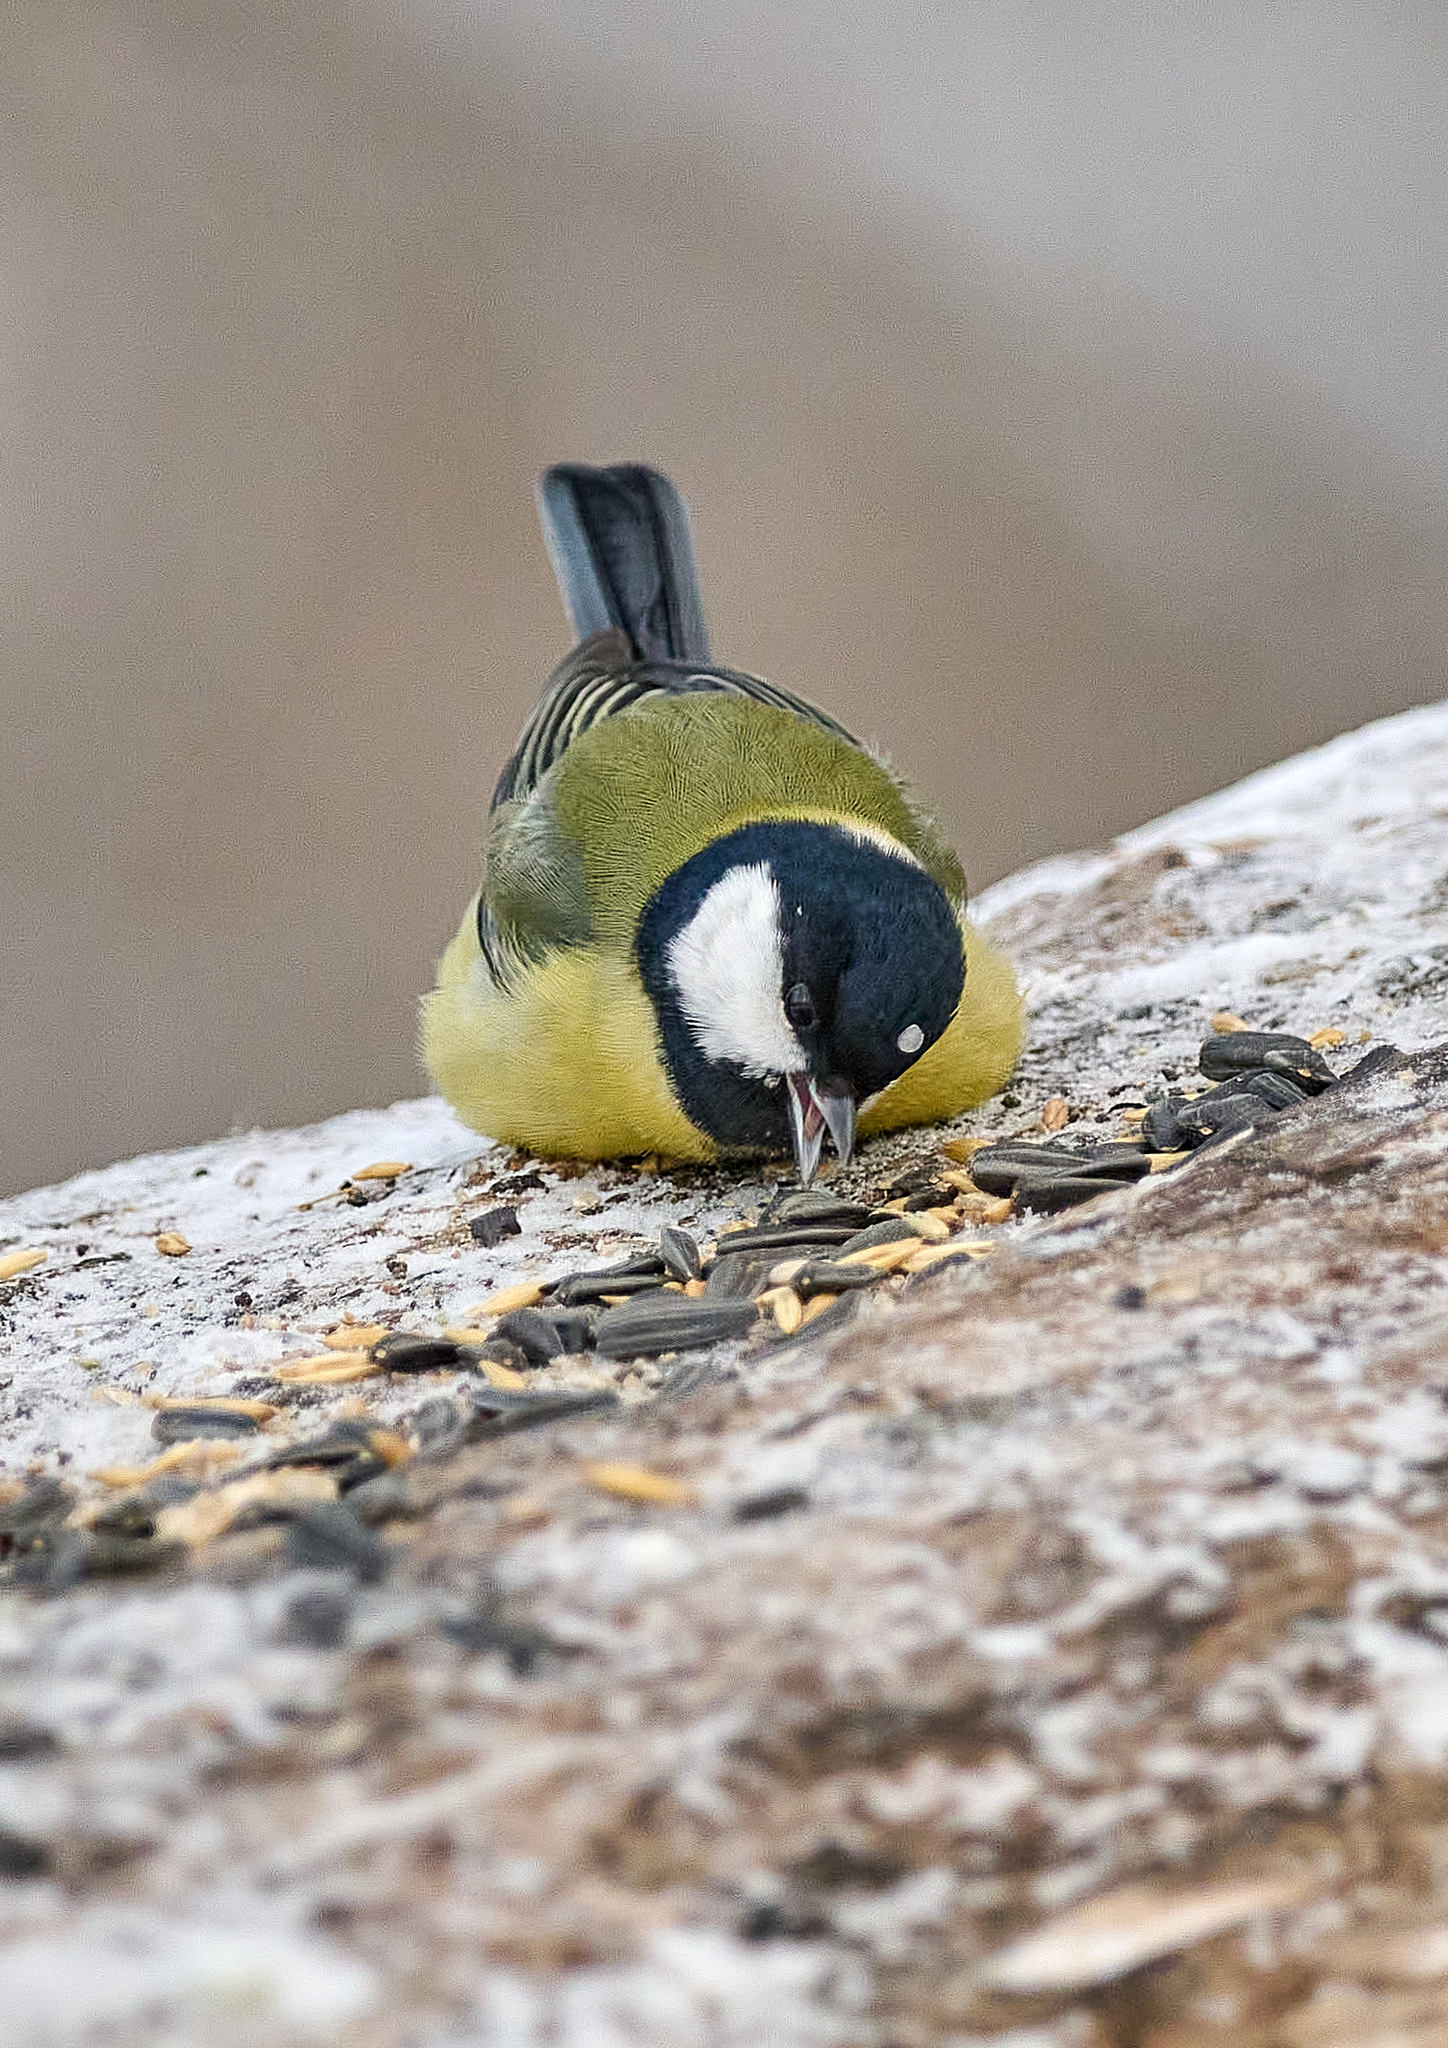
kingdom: Animalia
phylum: Chordata
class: Aves
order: Passeriformes
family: Paridae
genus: Parus
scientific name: Parus major
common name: Great tit
